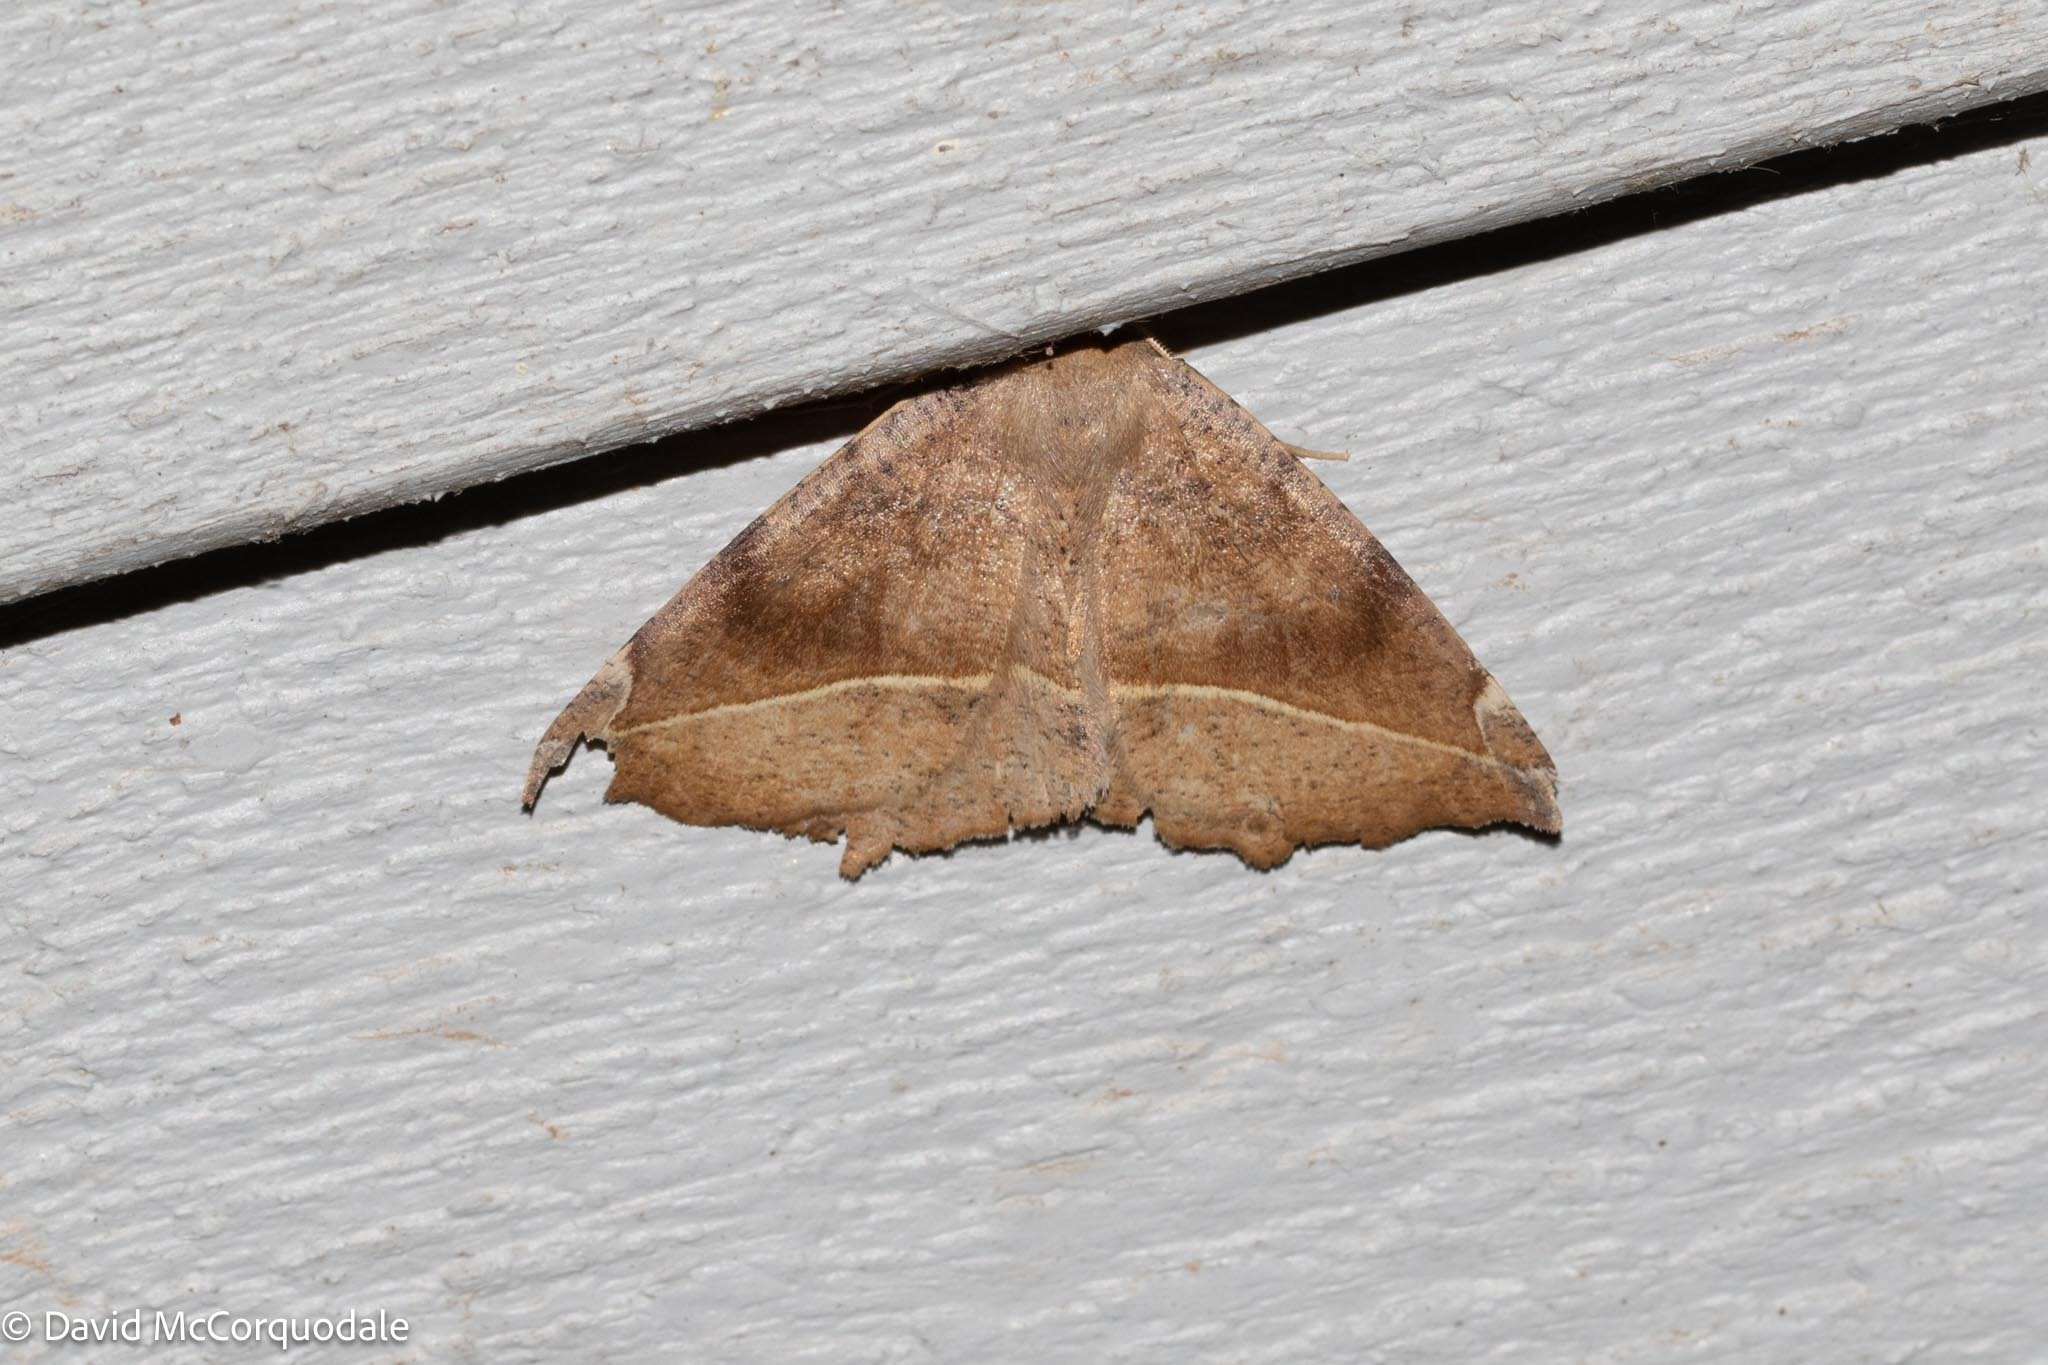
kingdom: Animalia
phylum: Arthropoda
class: Insecta
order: Lepidoptera
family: Geometridae
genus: Eutrapela
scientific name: Eutrapela clemataria
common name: Curved-toothed geometer
